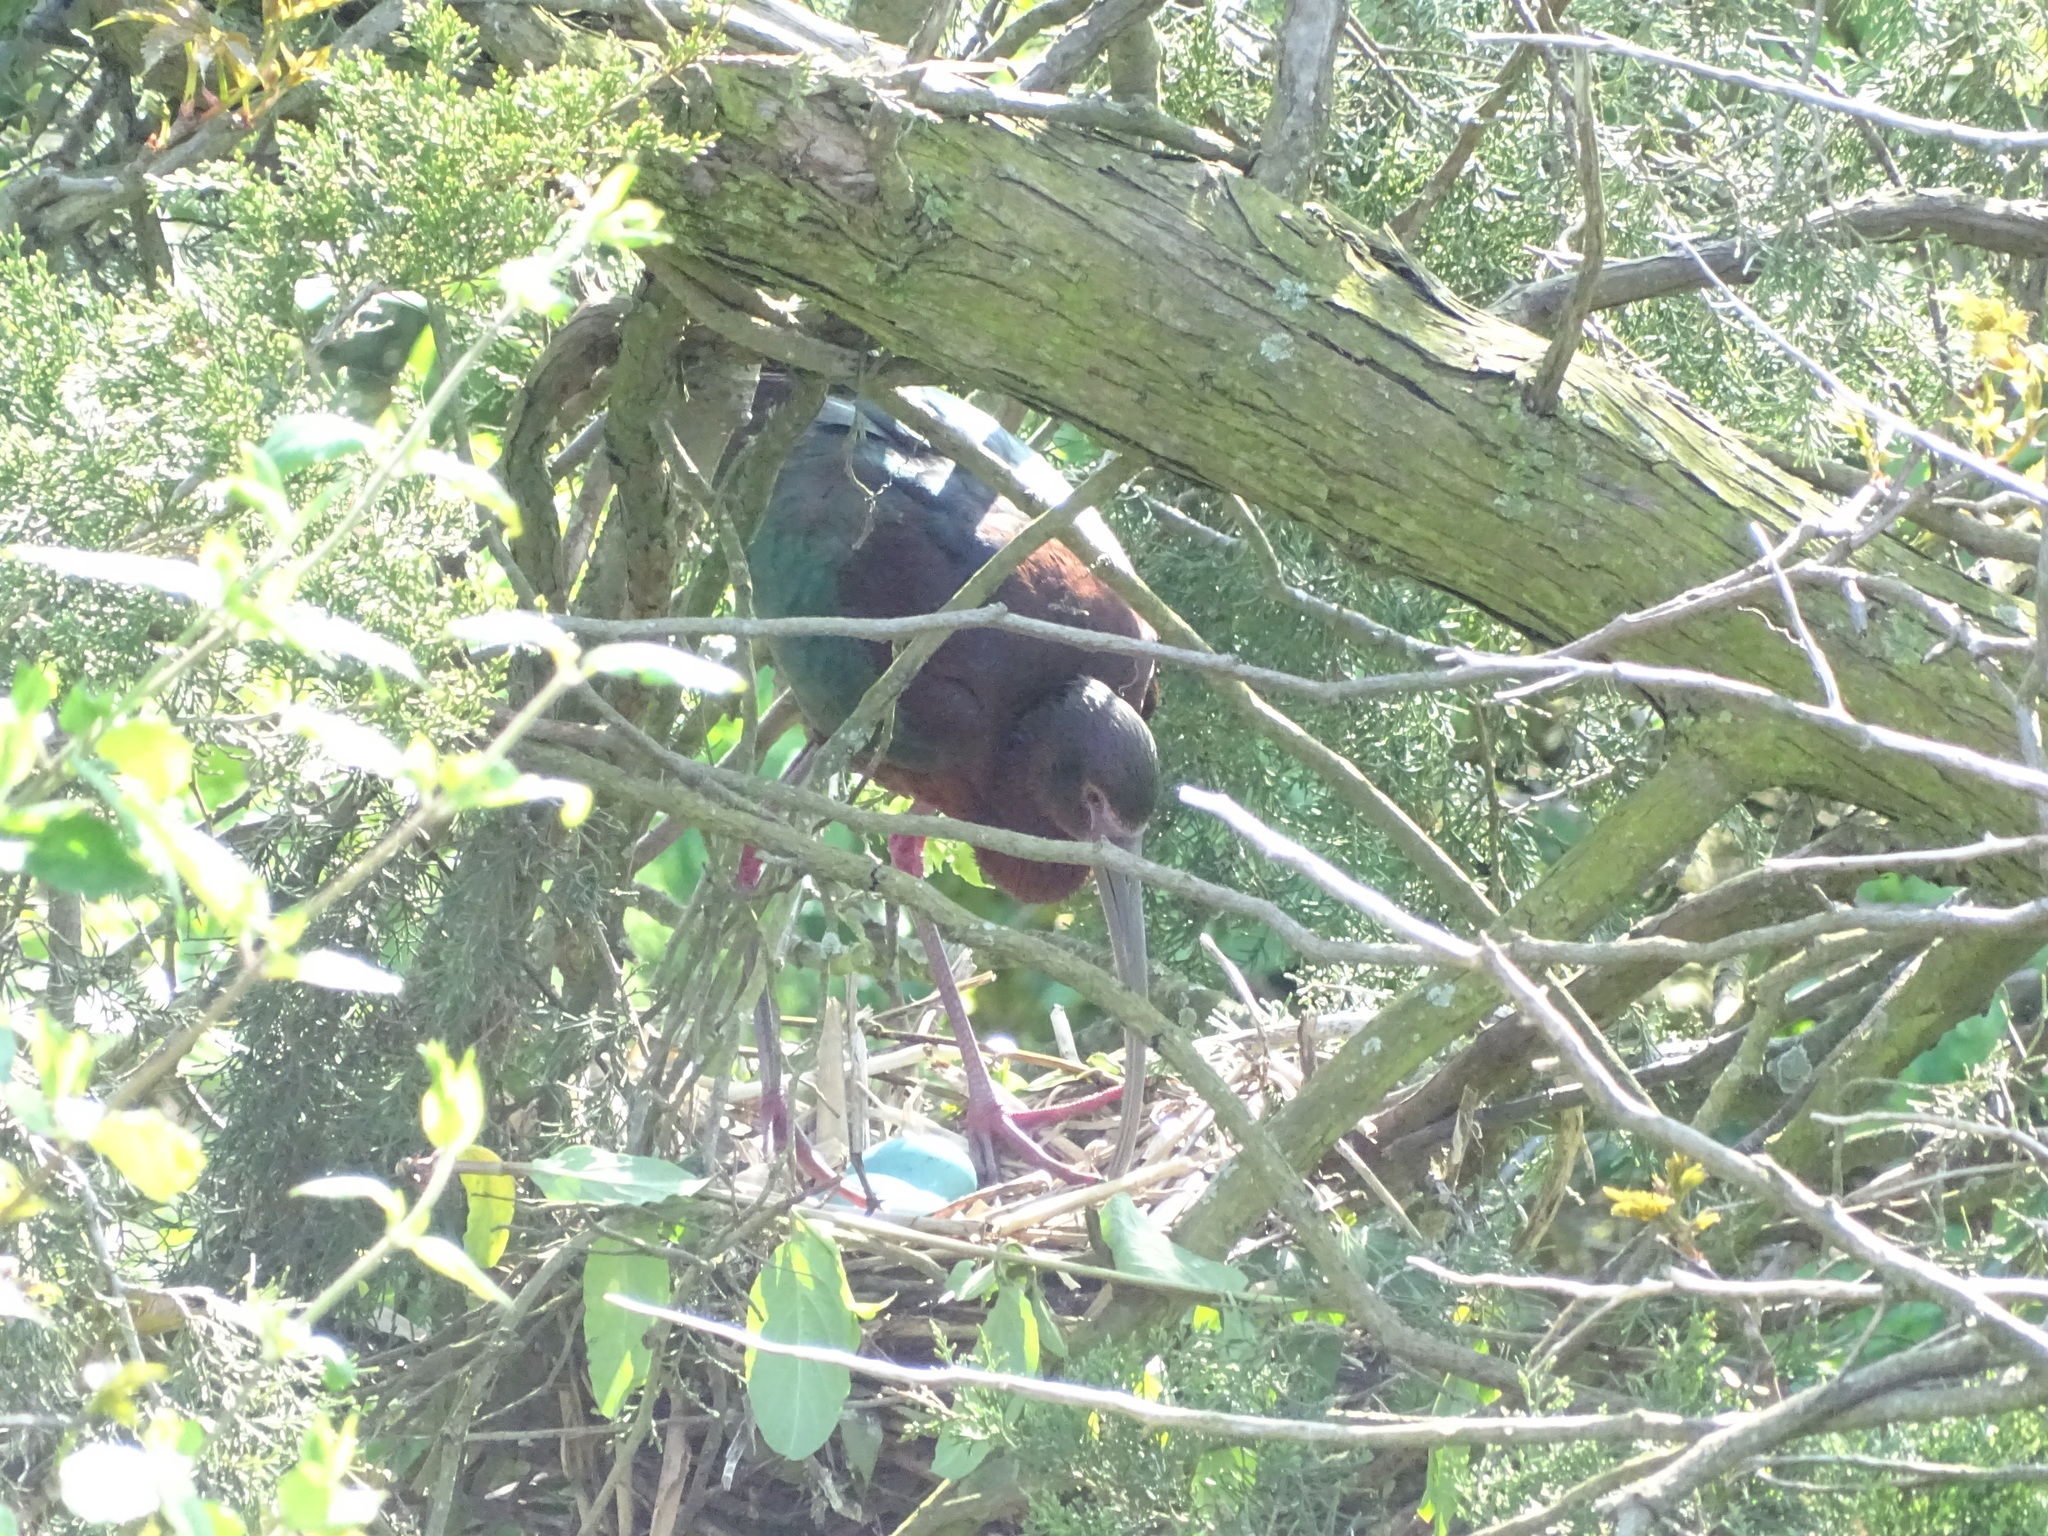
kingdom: Animalia
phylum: Chordata
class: Aves
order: Pelecaniformes
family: Threskiornithidae
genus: Plegadis
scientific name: Plegadis
